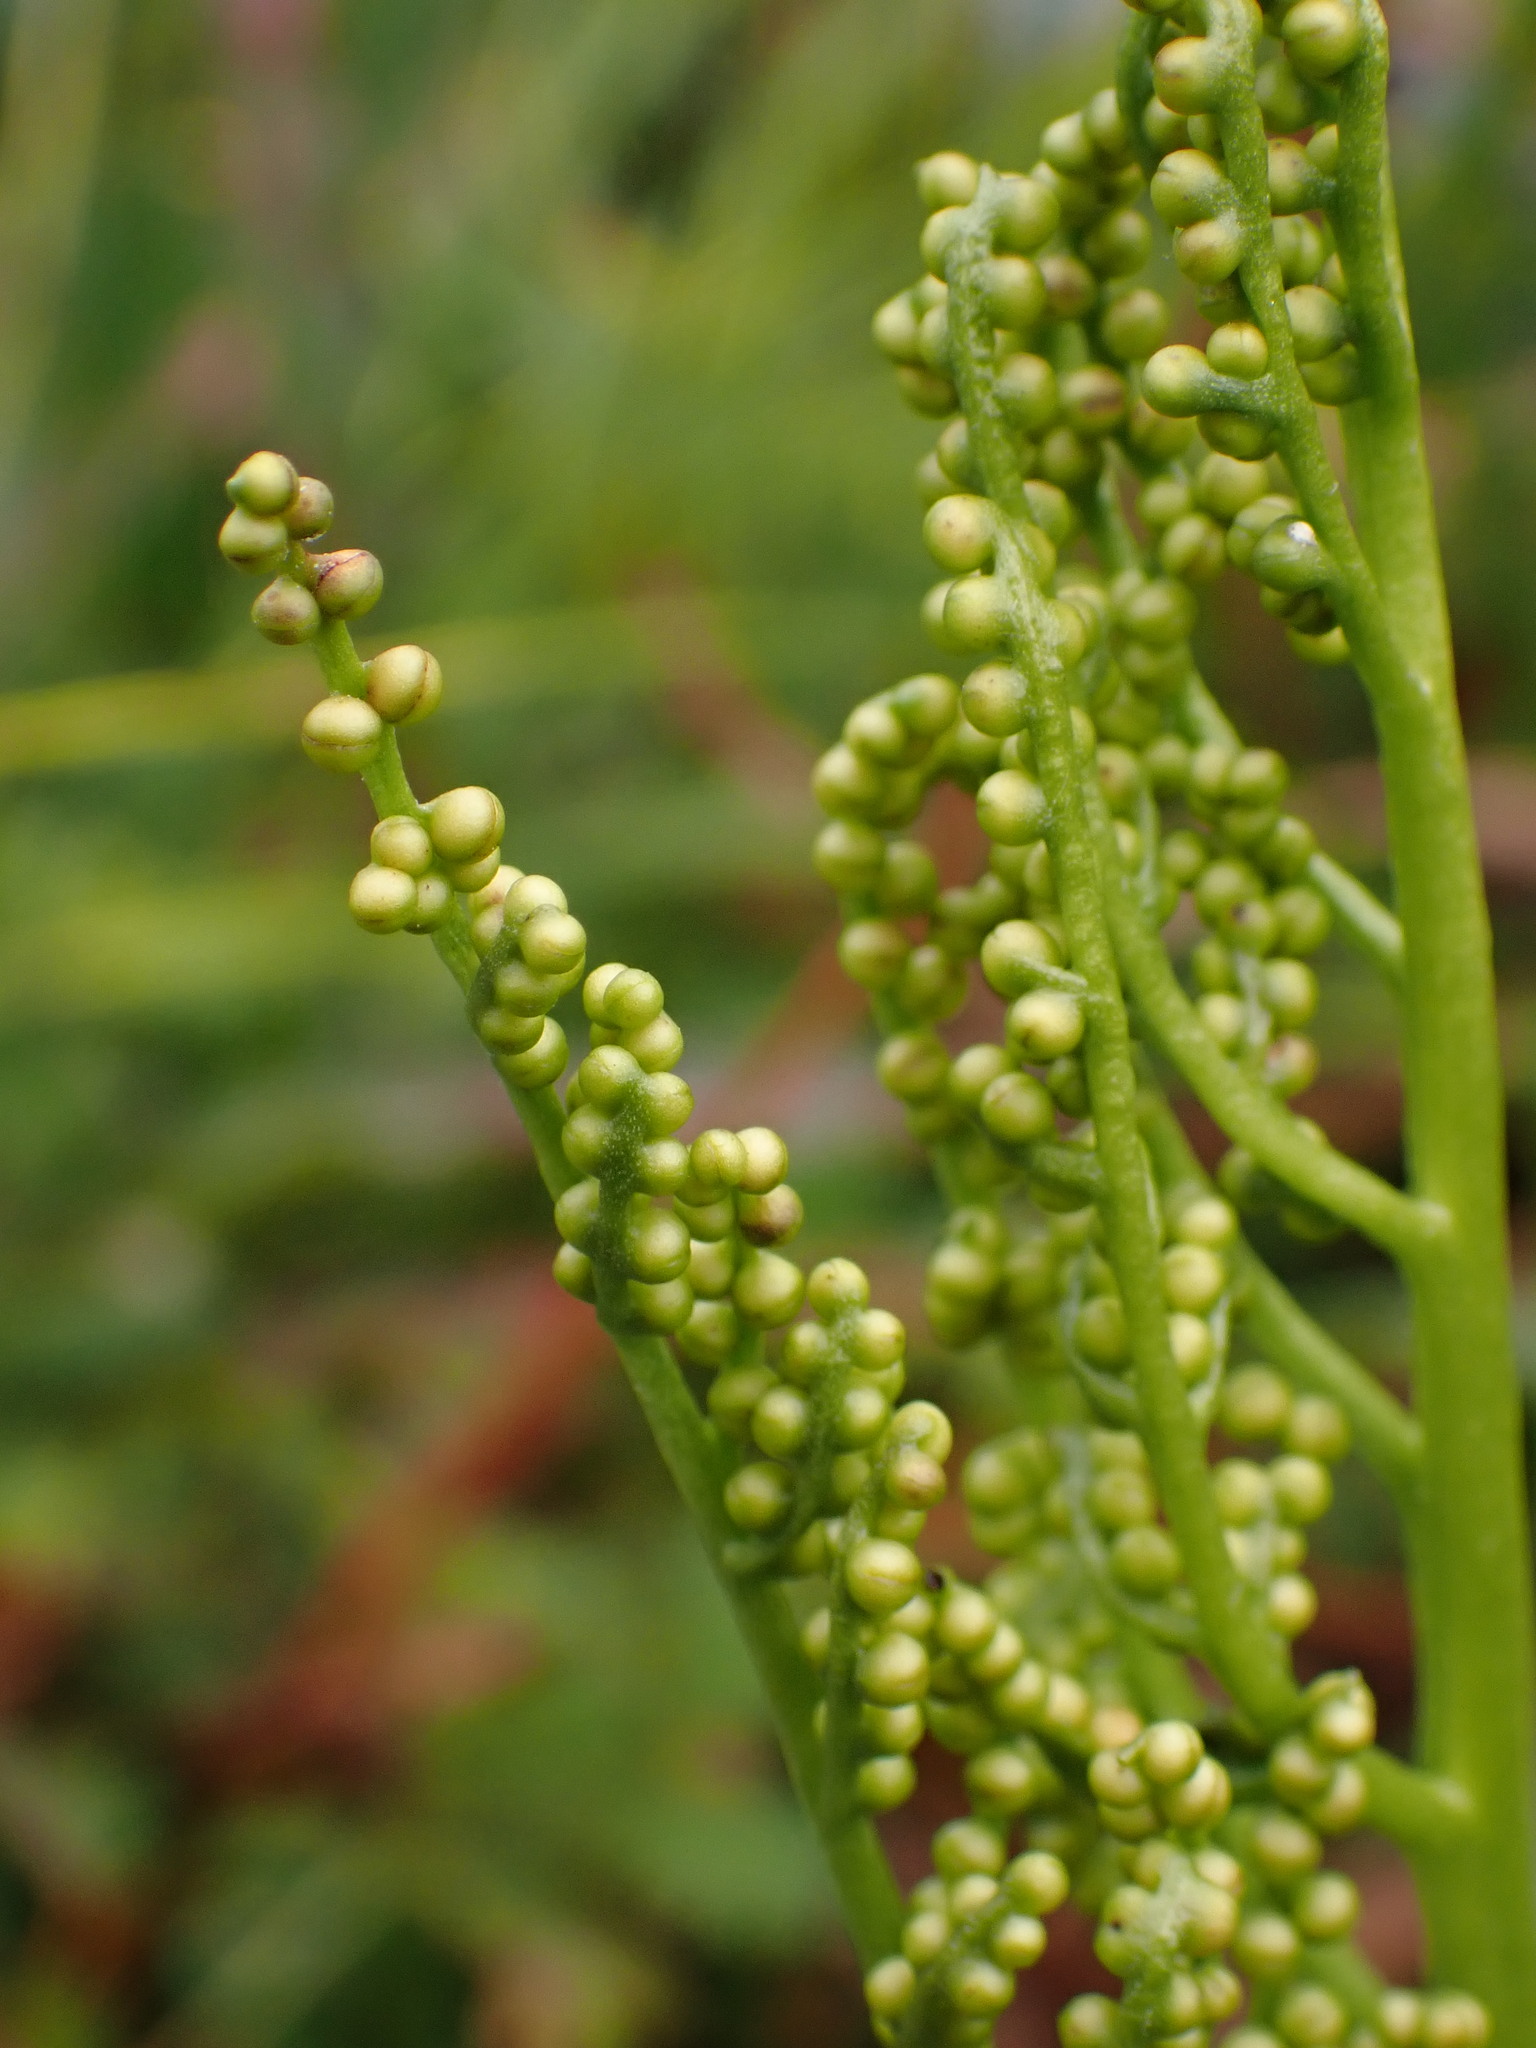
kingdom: Plantae
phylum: Tracheophyta
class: Polypodiopsida
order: Ophioglossales
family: Ophioglossaceae
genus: Sceptridium
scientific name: Sceptridium multifidum
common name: Leathery grape fern
